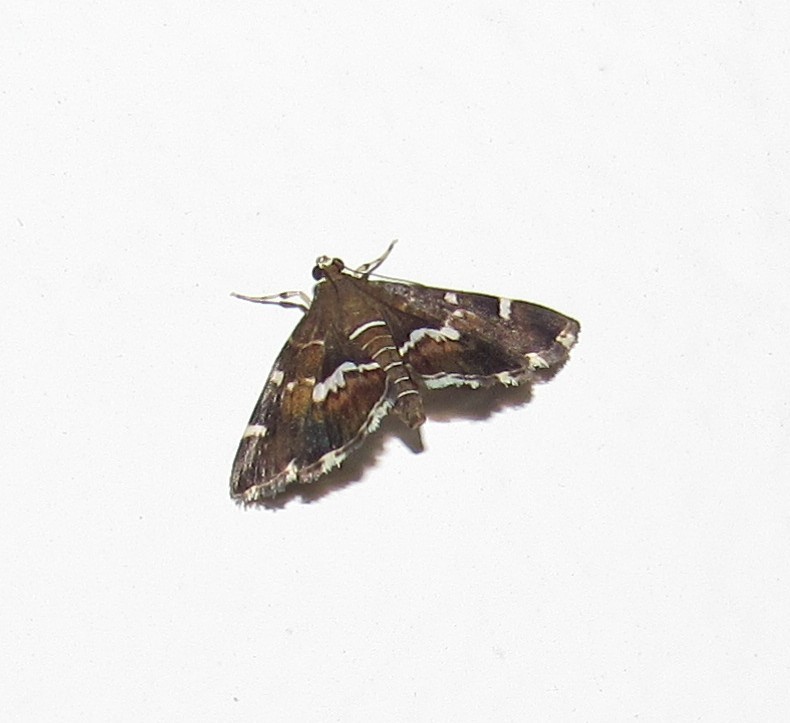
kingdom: Animalia
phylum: Arthropoda
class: Insecta
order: Lepidoptera
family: Crambidae
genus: Hymenia
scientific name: Hymenia perspectalis
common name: Spotted beet webworm
